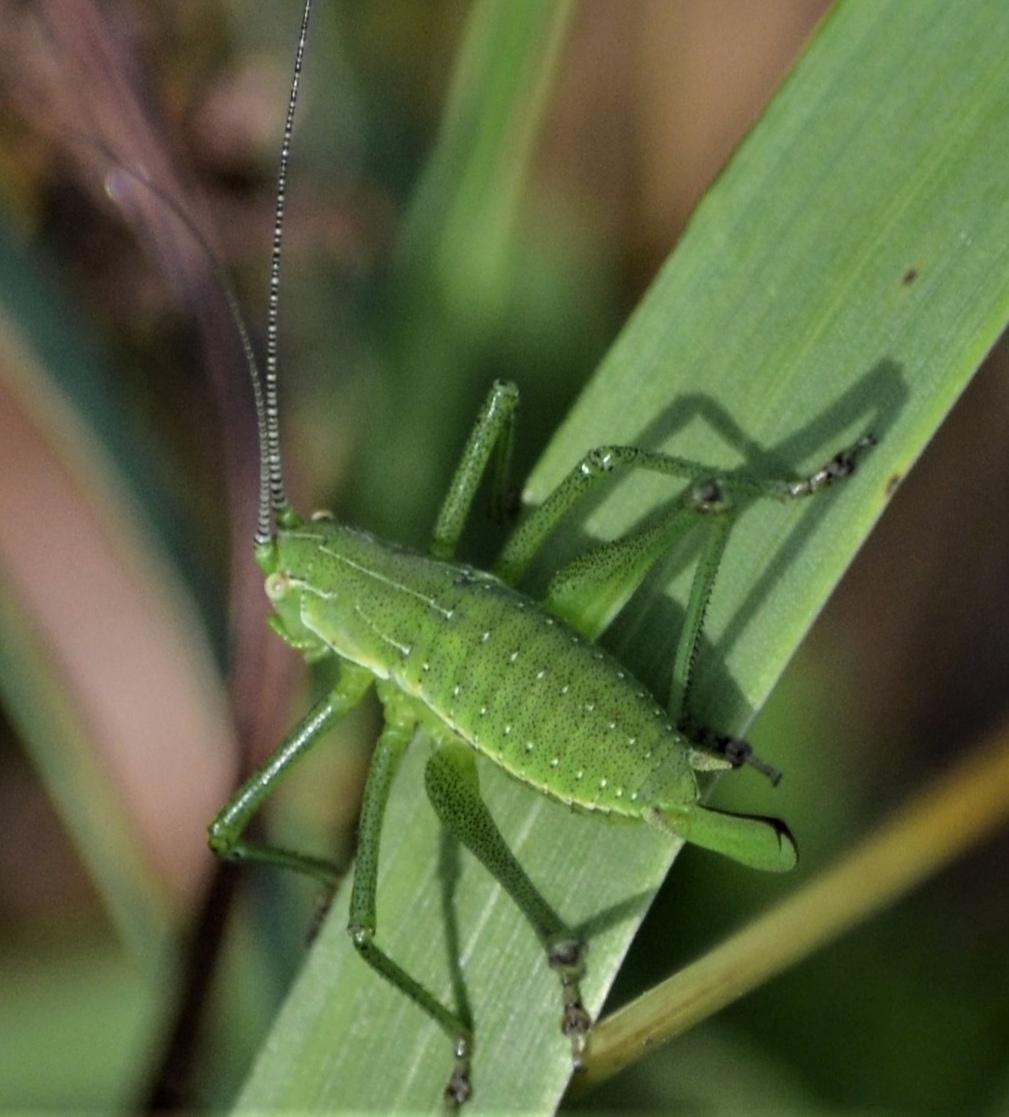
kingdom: Animalia
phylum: Arthropoda
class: Insecta
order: Orthoptera
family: Tettigoniidae
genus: Leptophyes
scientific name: Leptophyes boscii
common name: Balkan speckled bush-cricket
